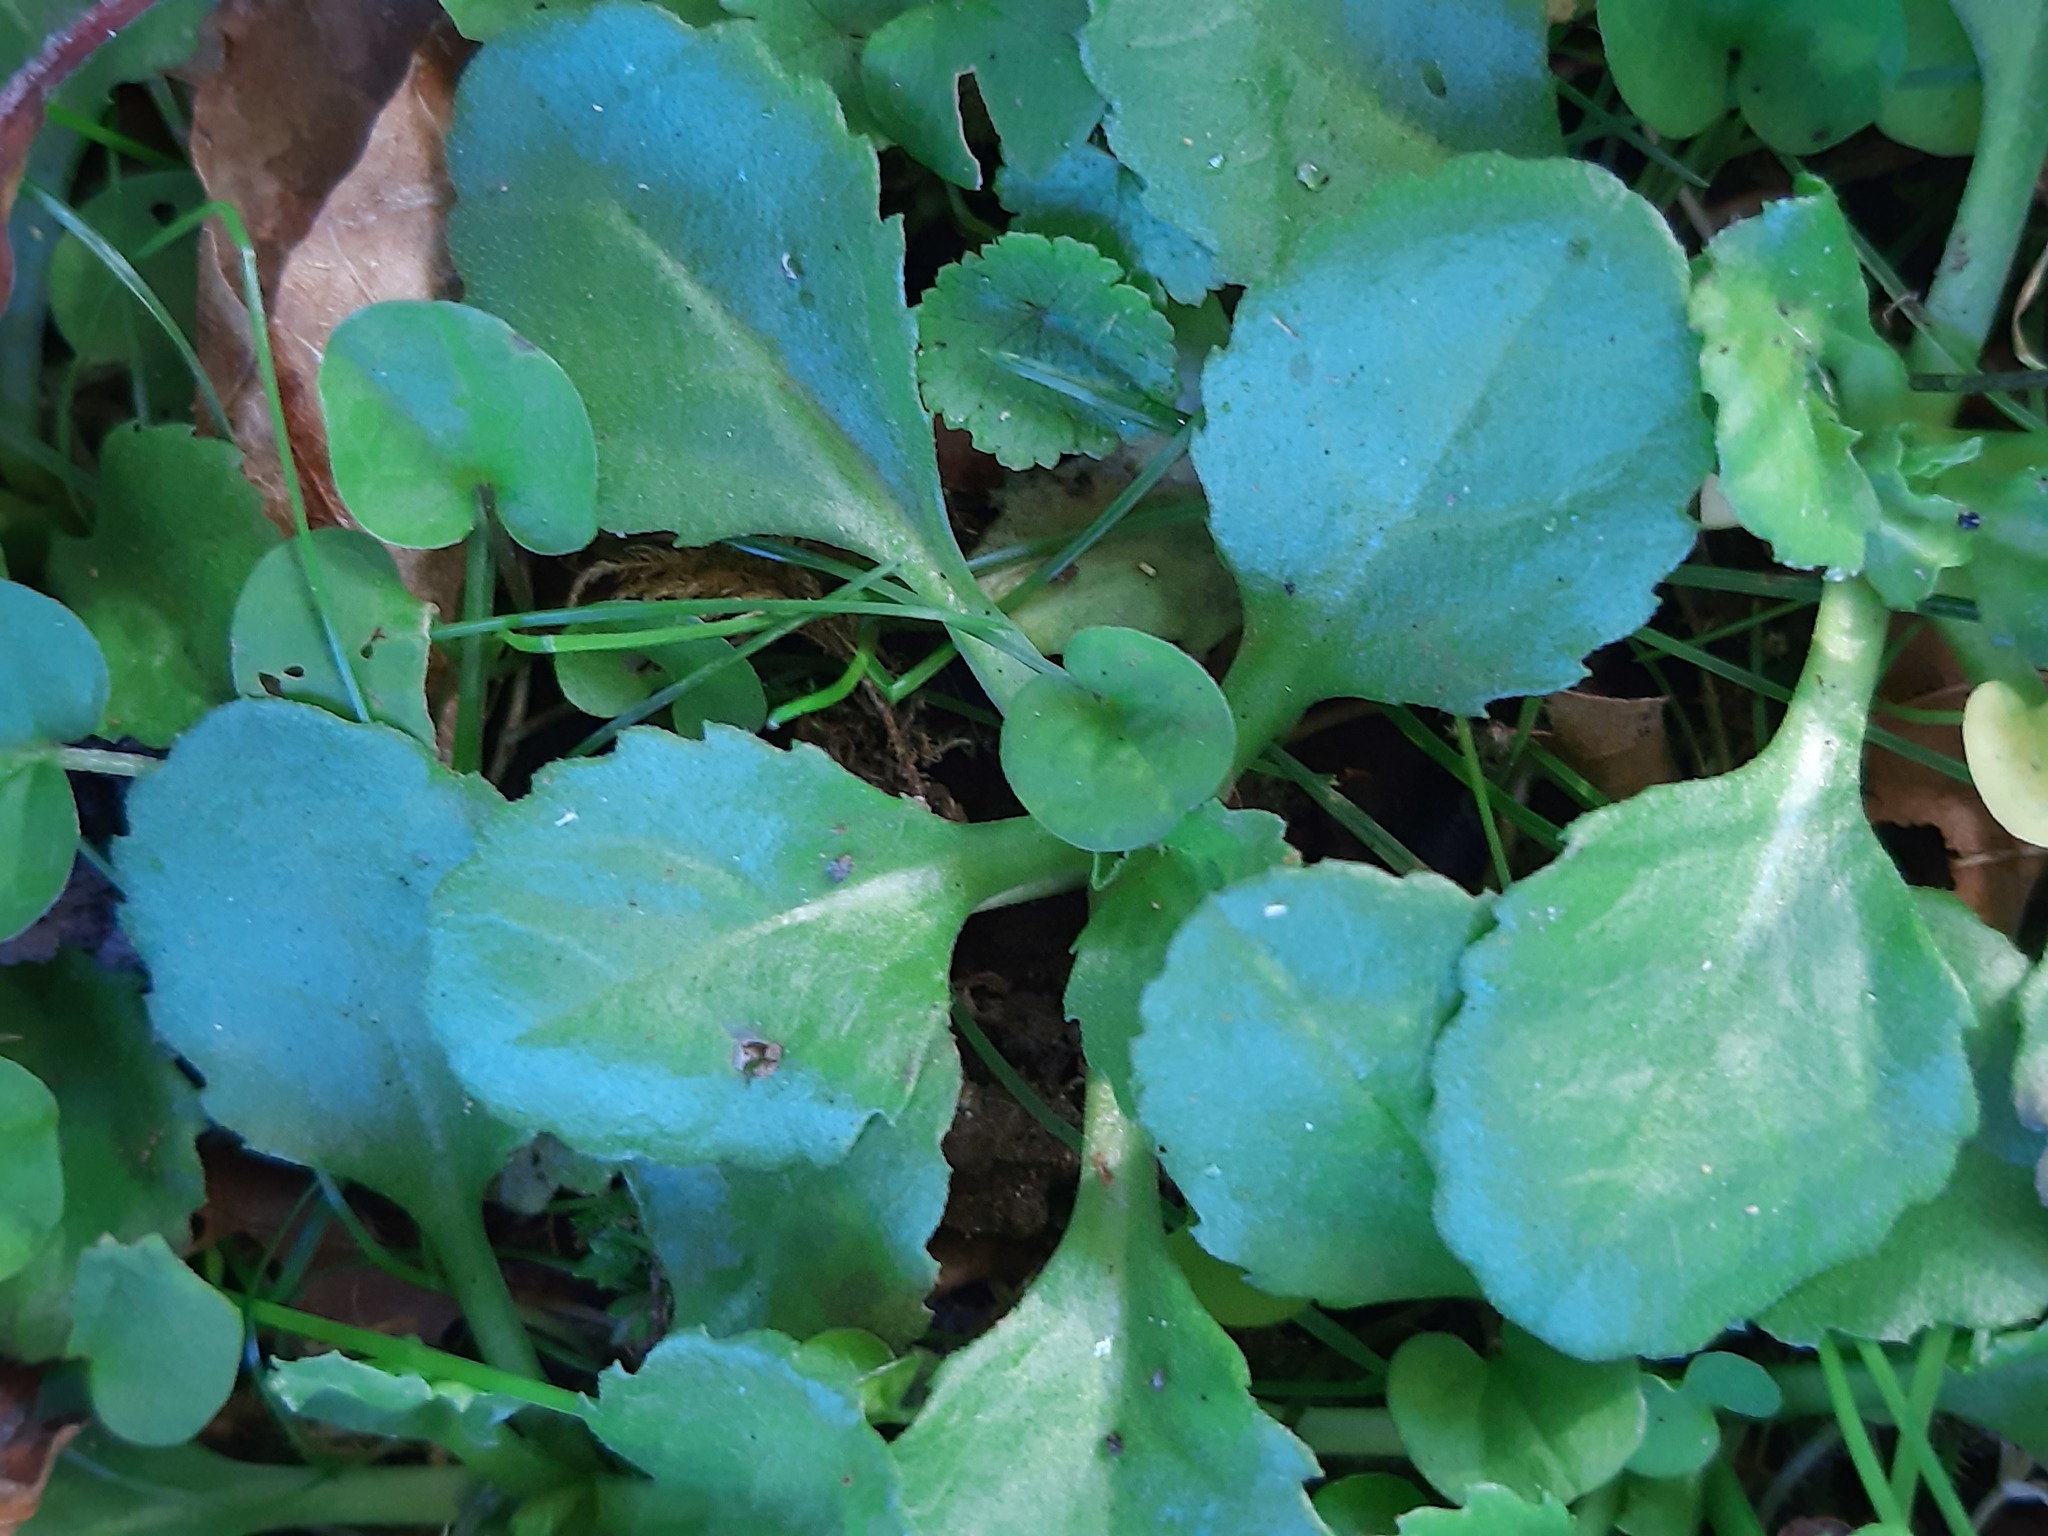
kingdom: Plantae
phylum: Tracheophyta
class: Magnoliopsida
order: Asterales
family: Asteraceae
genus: Bellis
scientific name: Bellis perennis
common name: Lawndaisy
